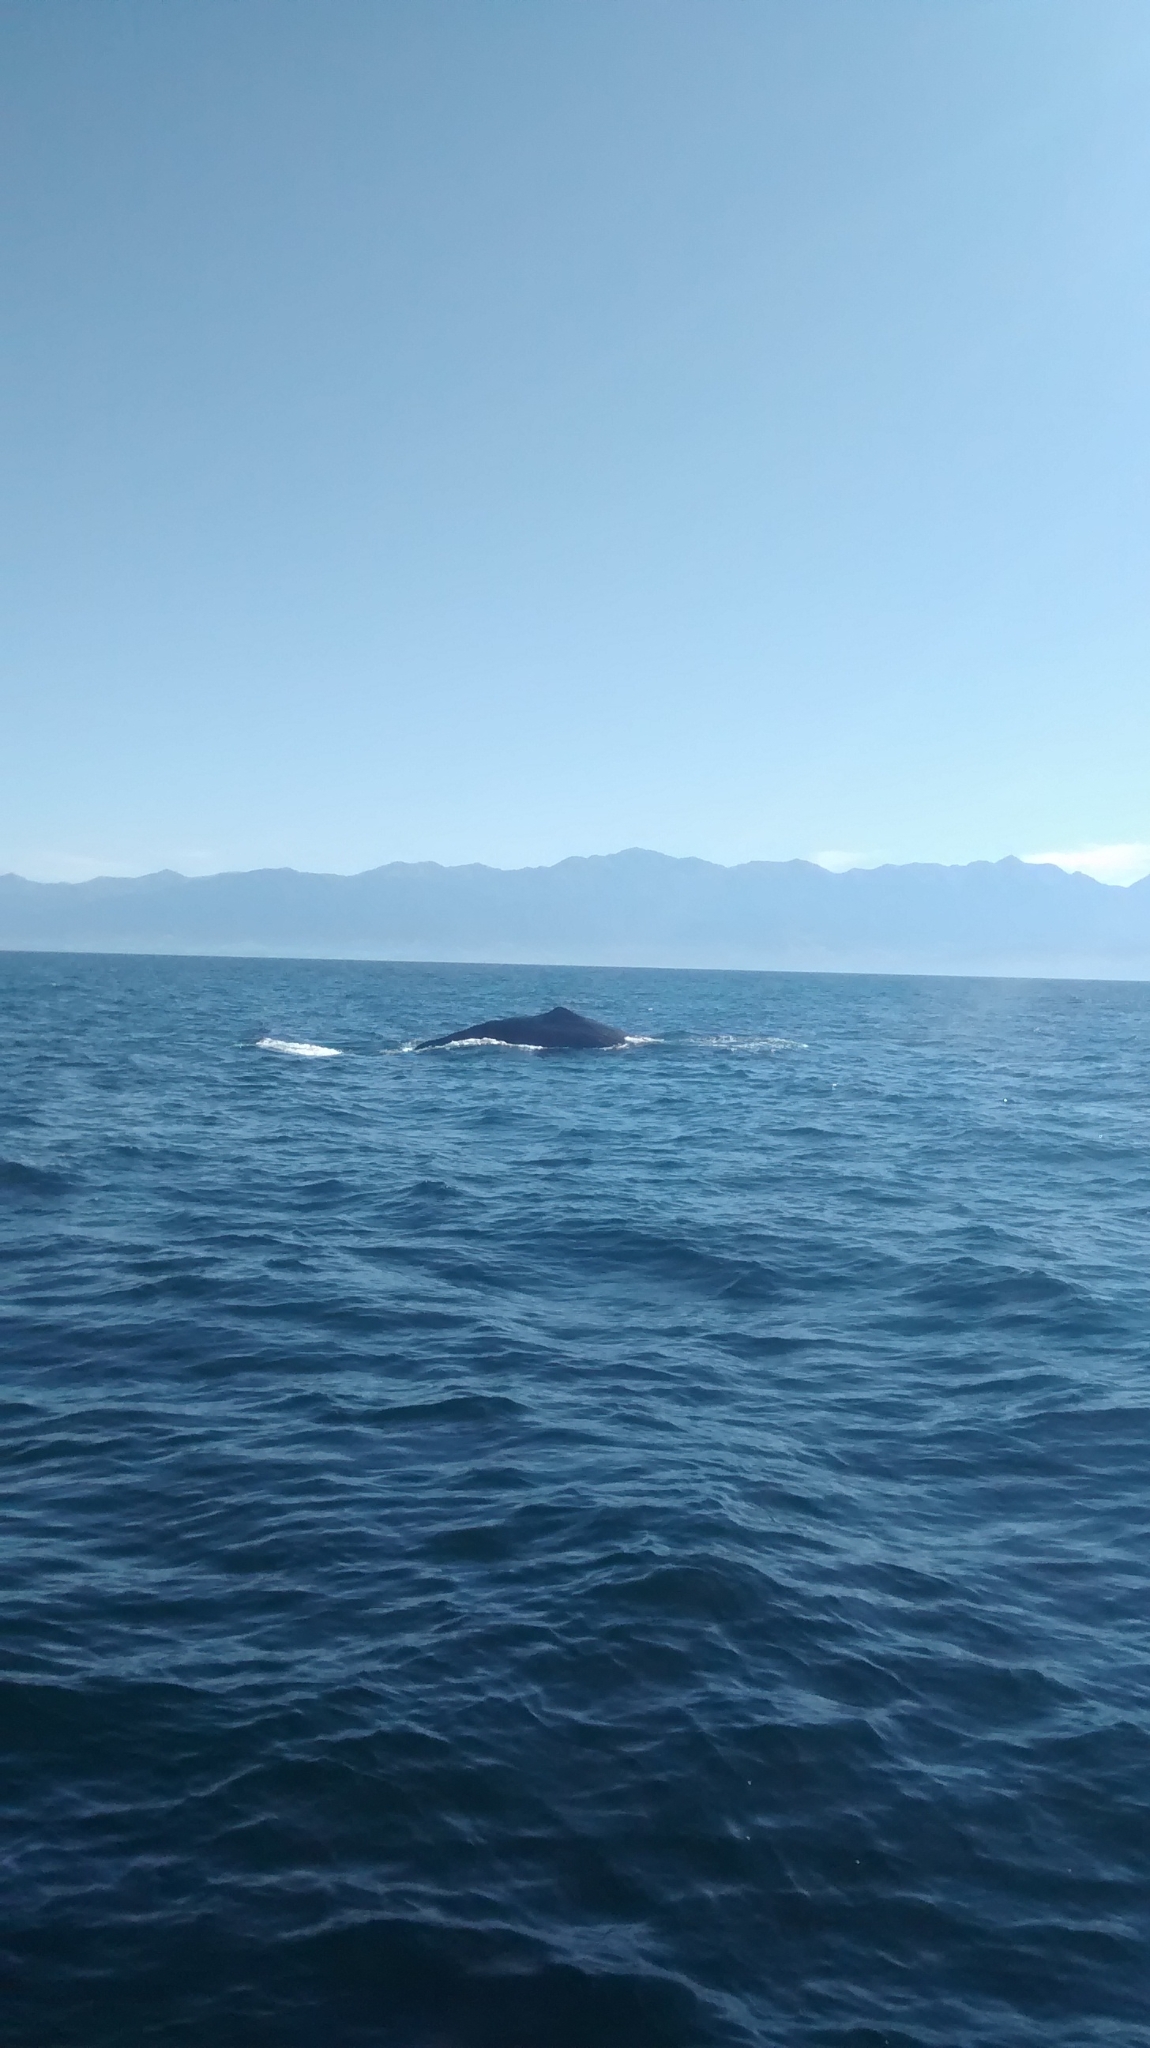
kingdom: Animalia
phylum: Chordata
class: Mammalia
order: Cetacea
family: Physeteridae
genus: Physeter
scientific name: Physeter macrocephalus
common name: Sperm whale
